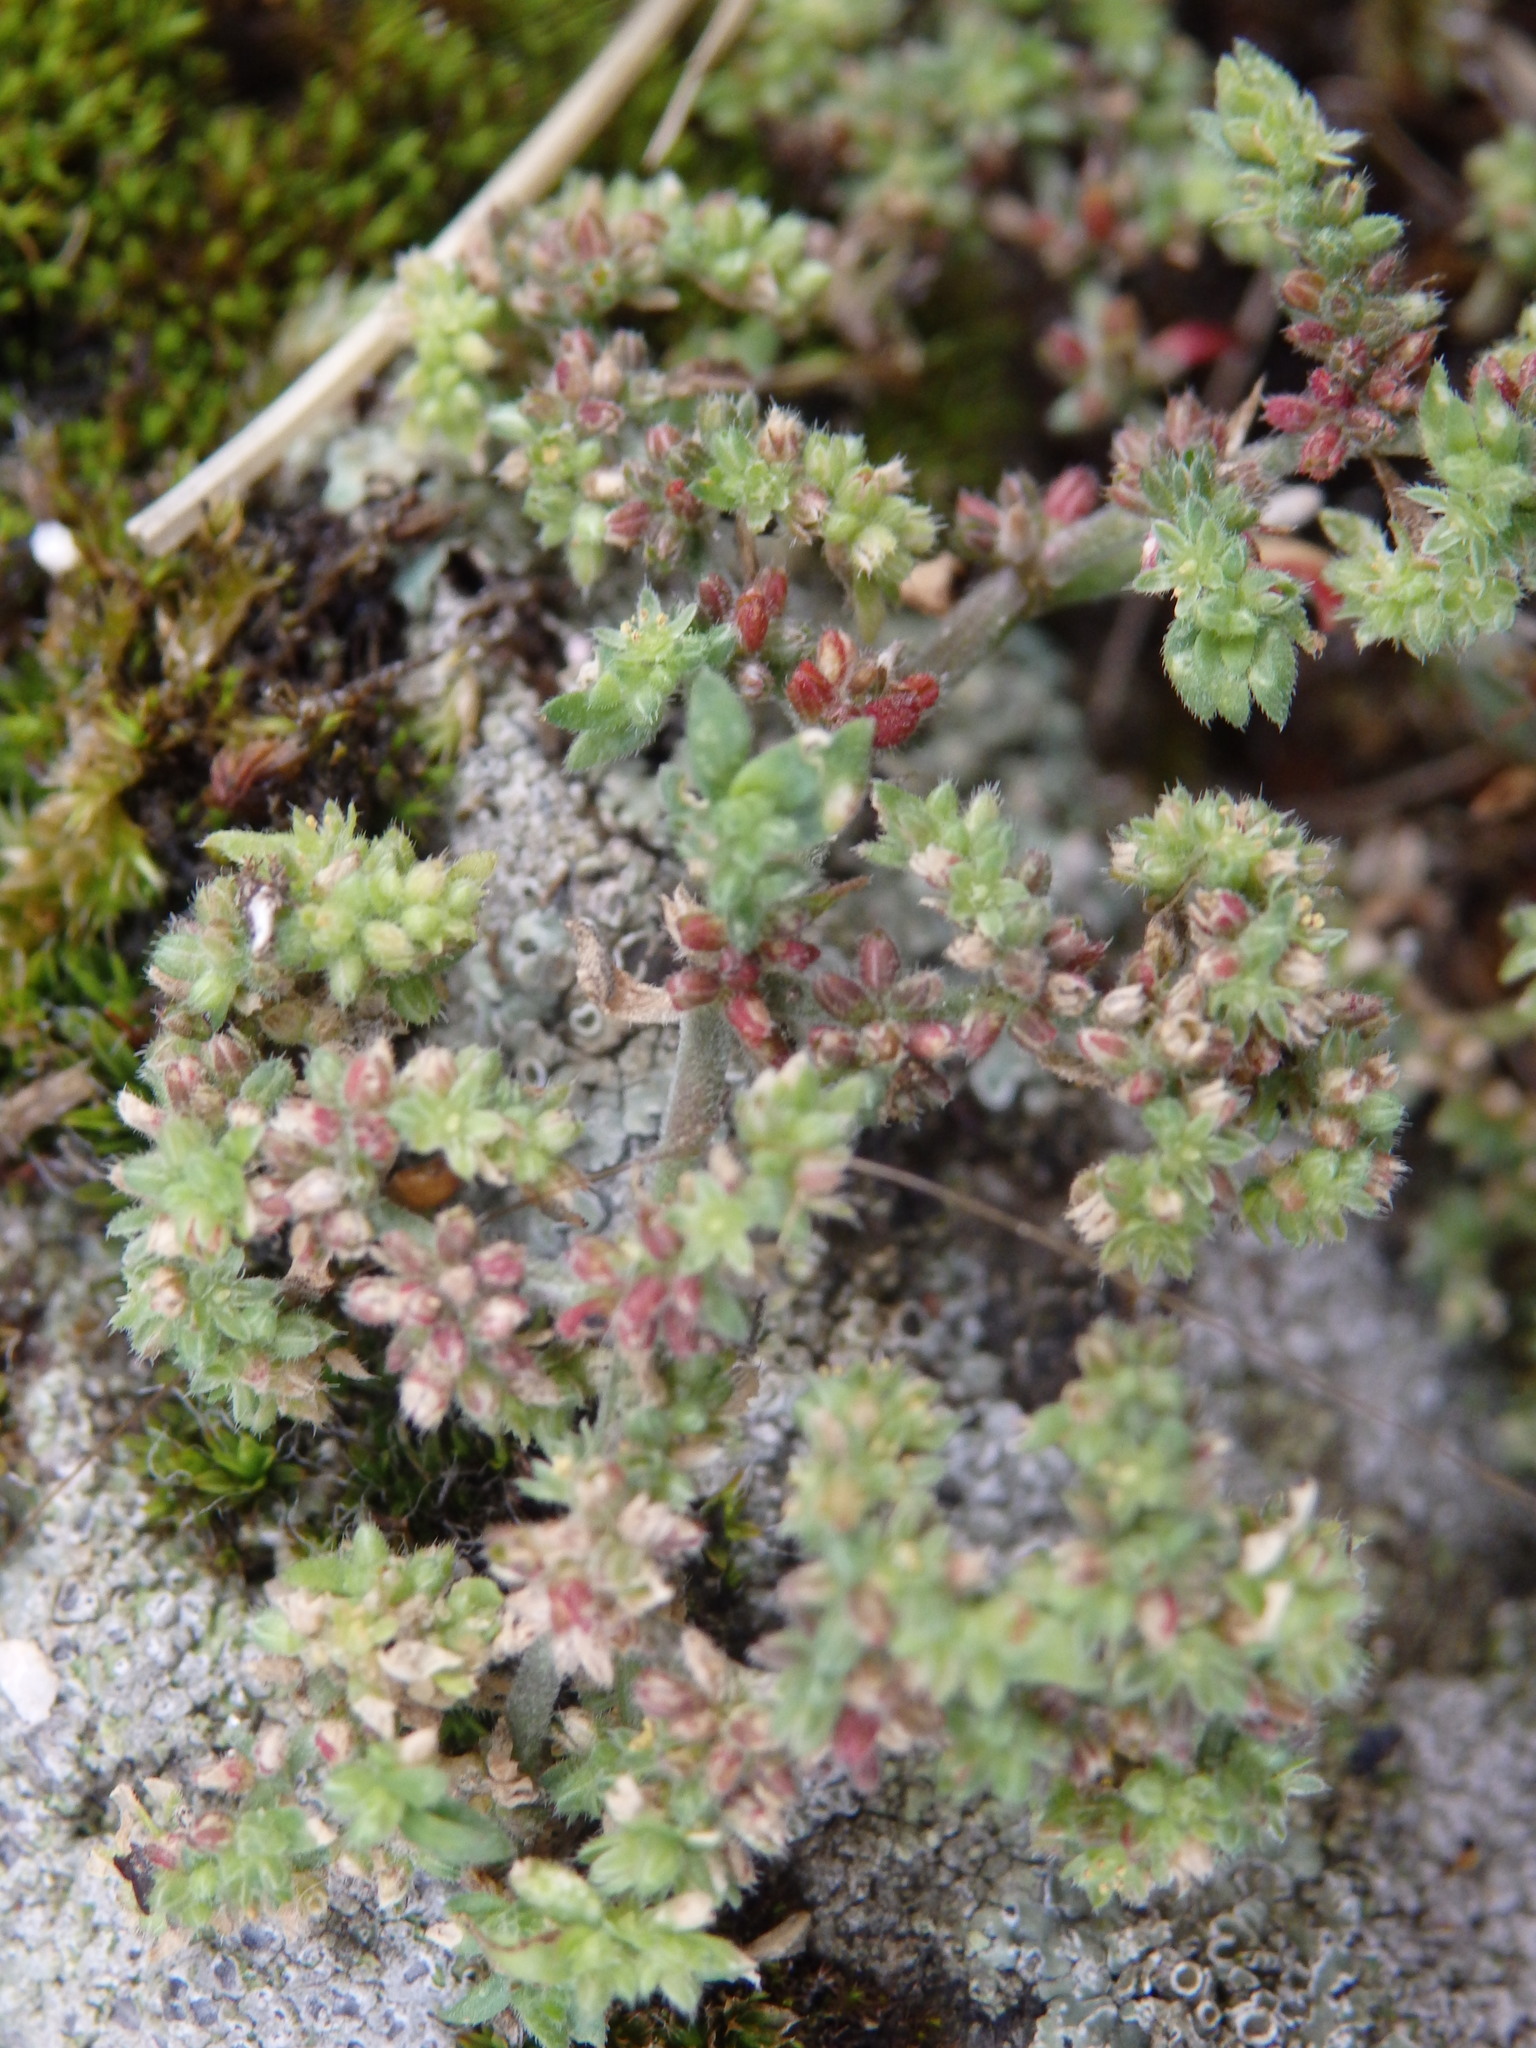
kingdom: Plantae
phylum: Tracheophyta
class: Magnoliopsida
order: Caryophyllales
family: Caryophyllaceae
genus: Herniaria
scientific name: Herniaria lusitanica
